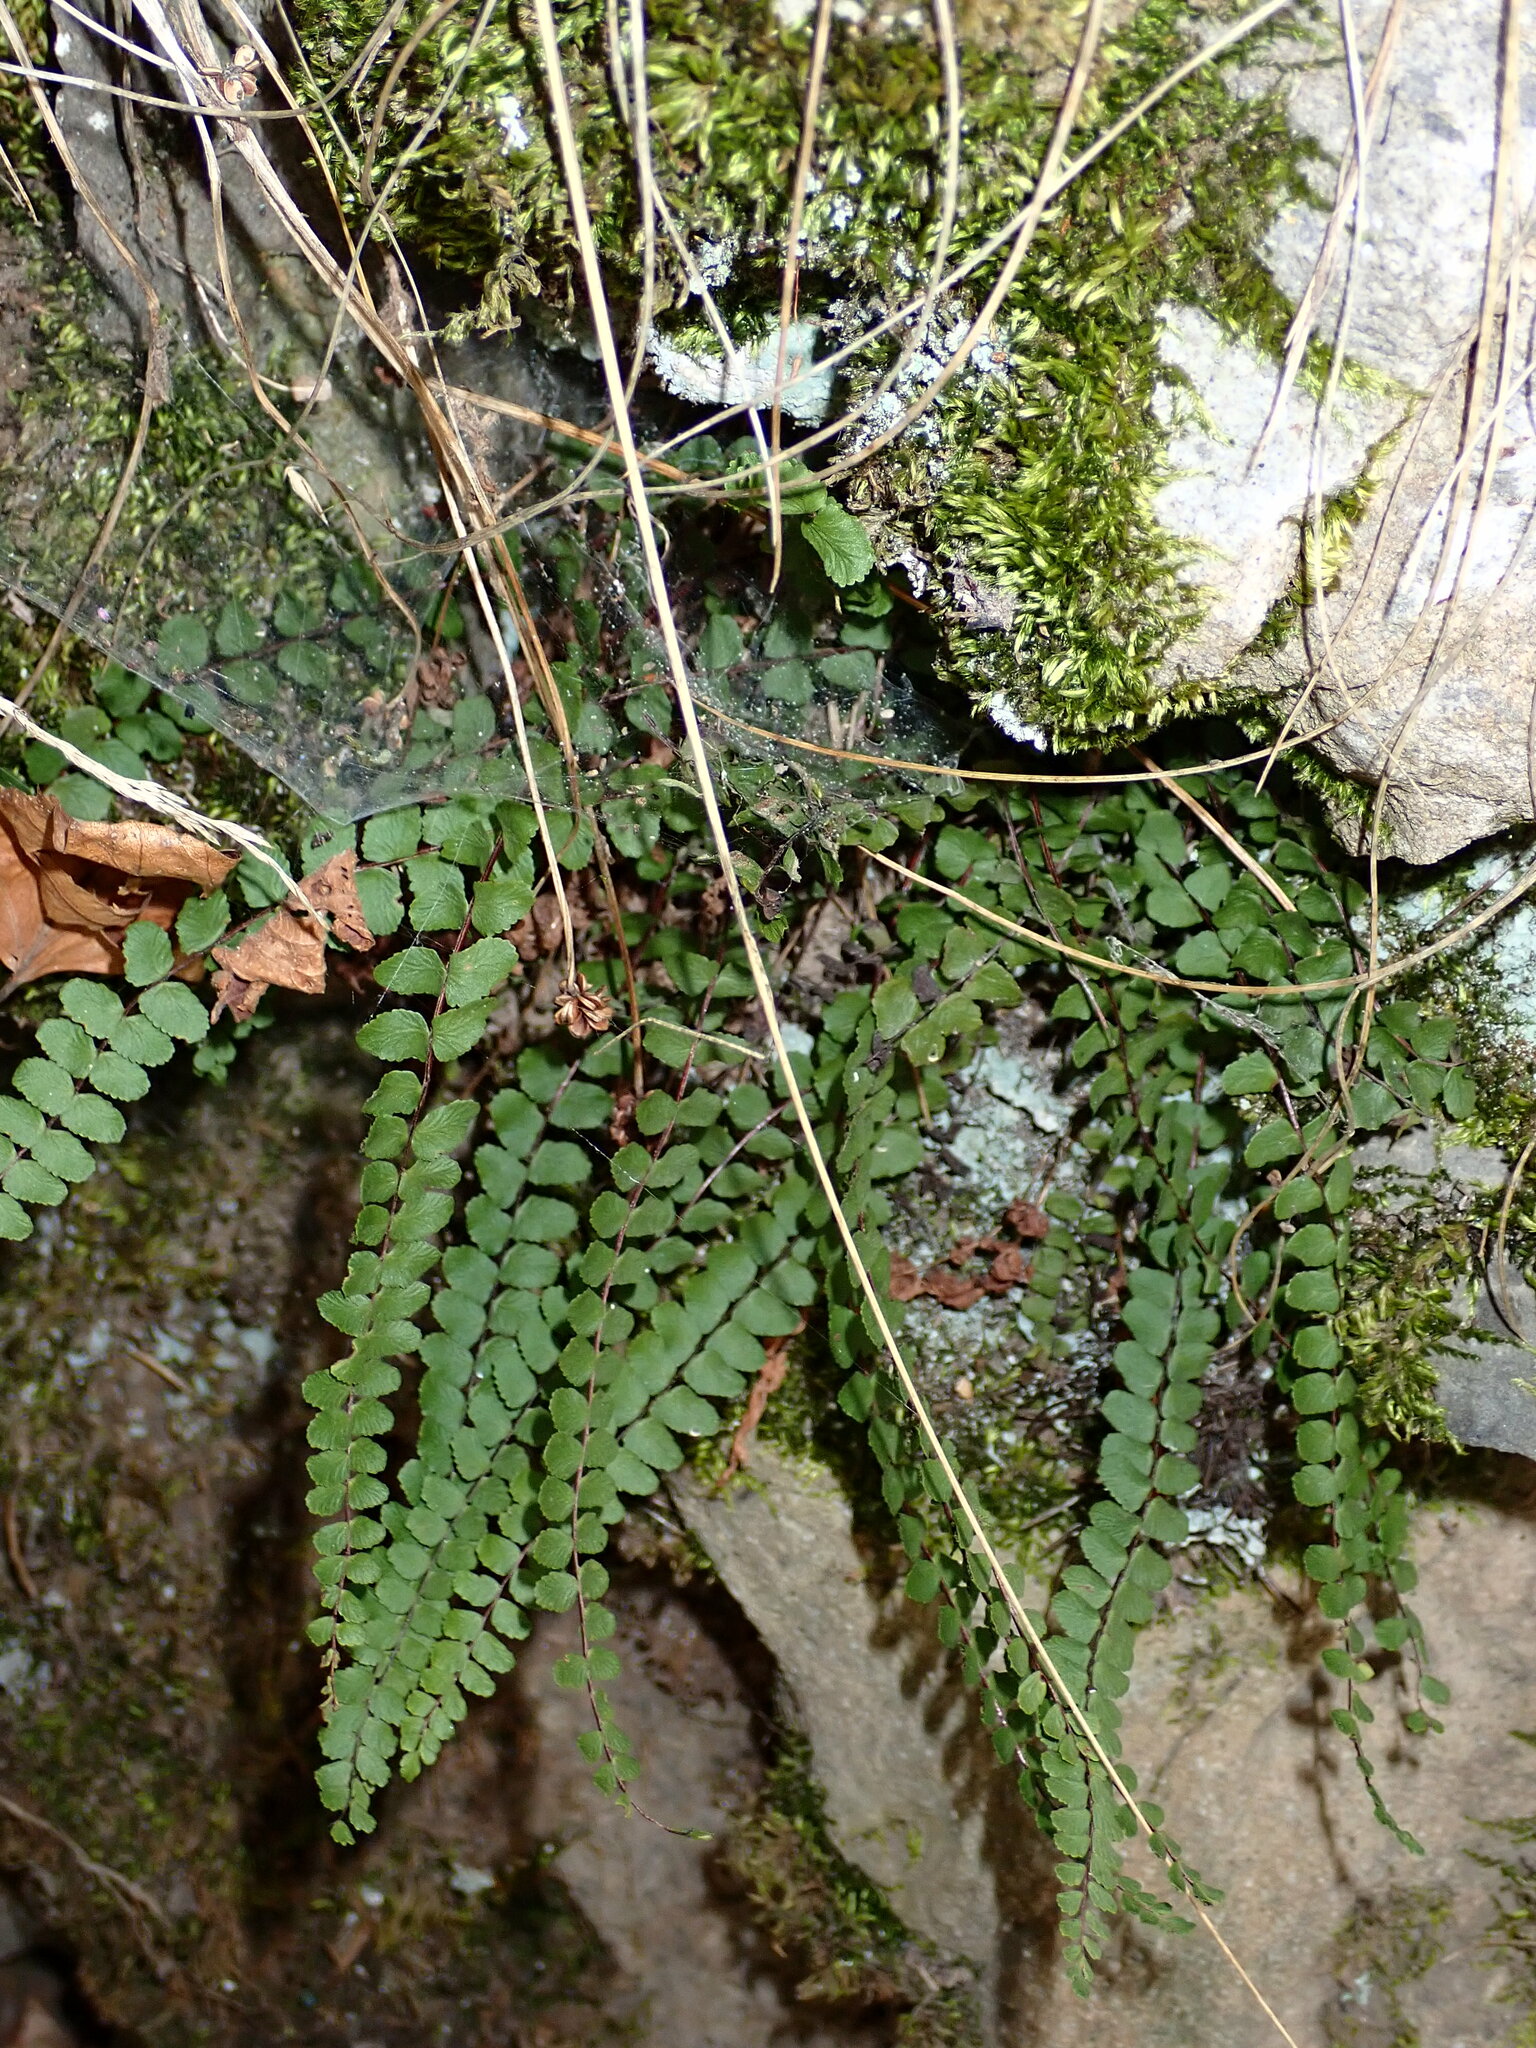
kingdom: Plantae
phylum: Tracheophyta
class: Polypodiopsida
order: Polypodiales
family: Aspleniaceae
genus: Asplenium
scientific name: Asplenium trichomanes
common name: Maidenhair spleenwort
